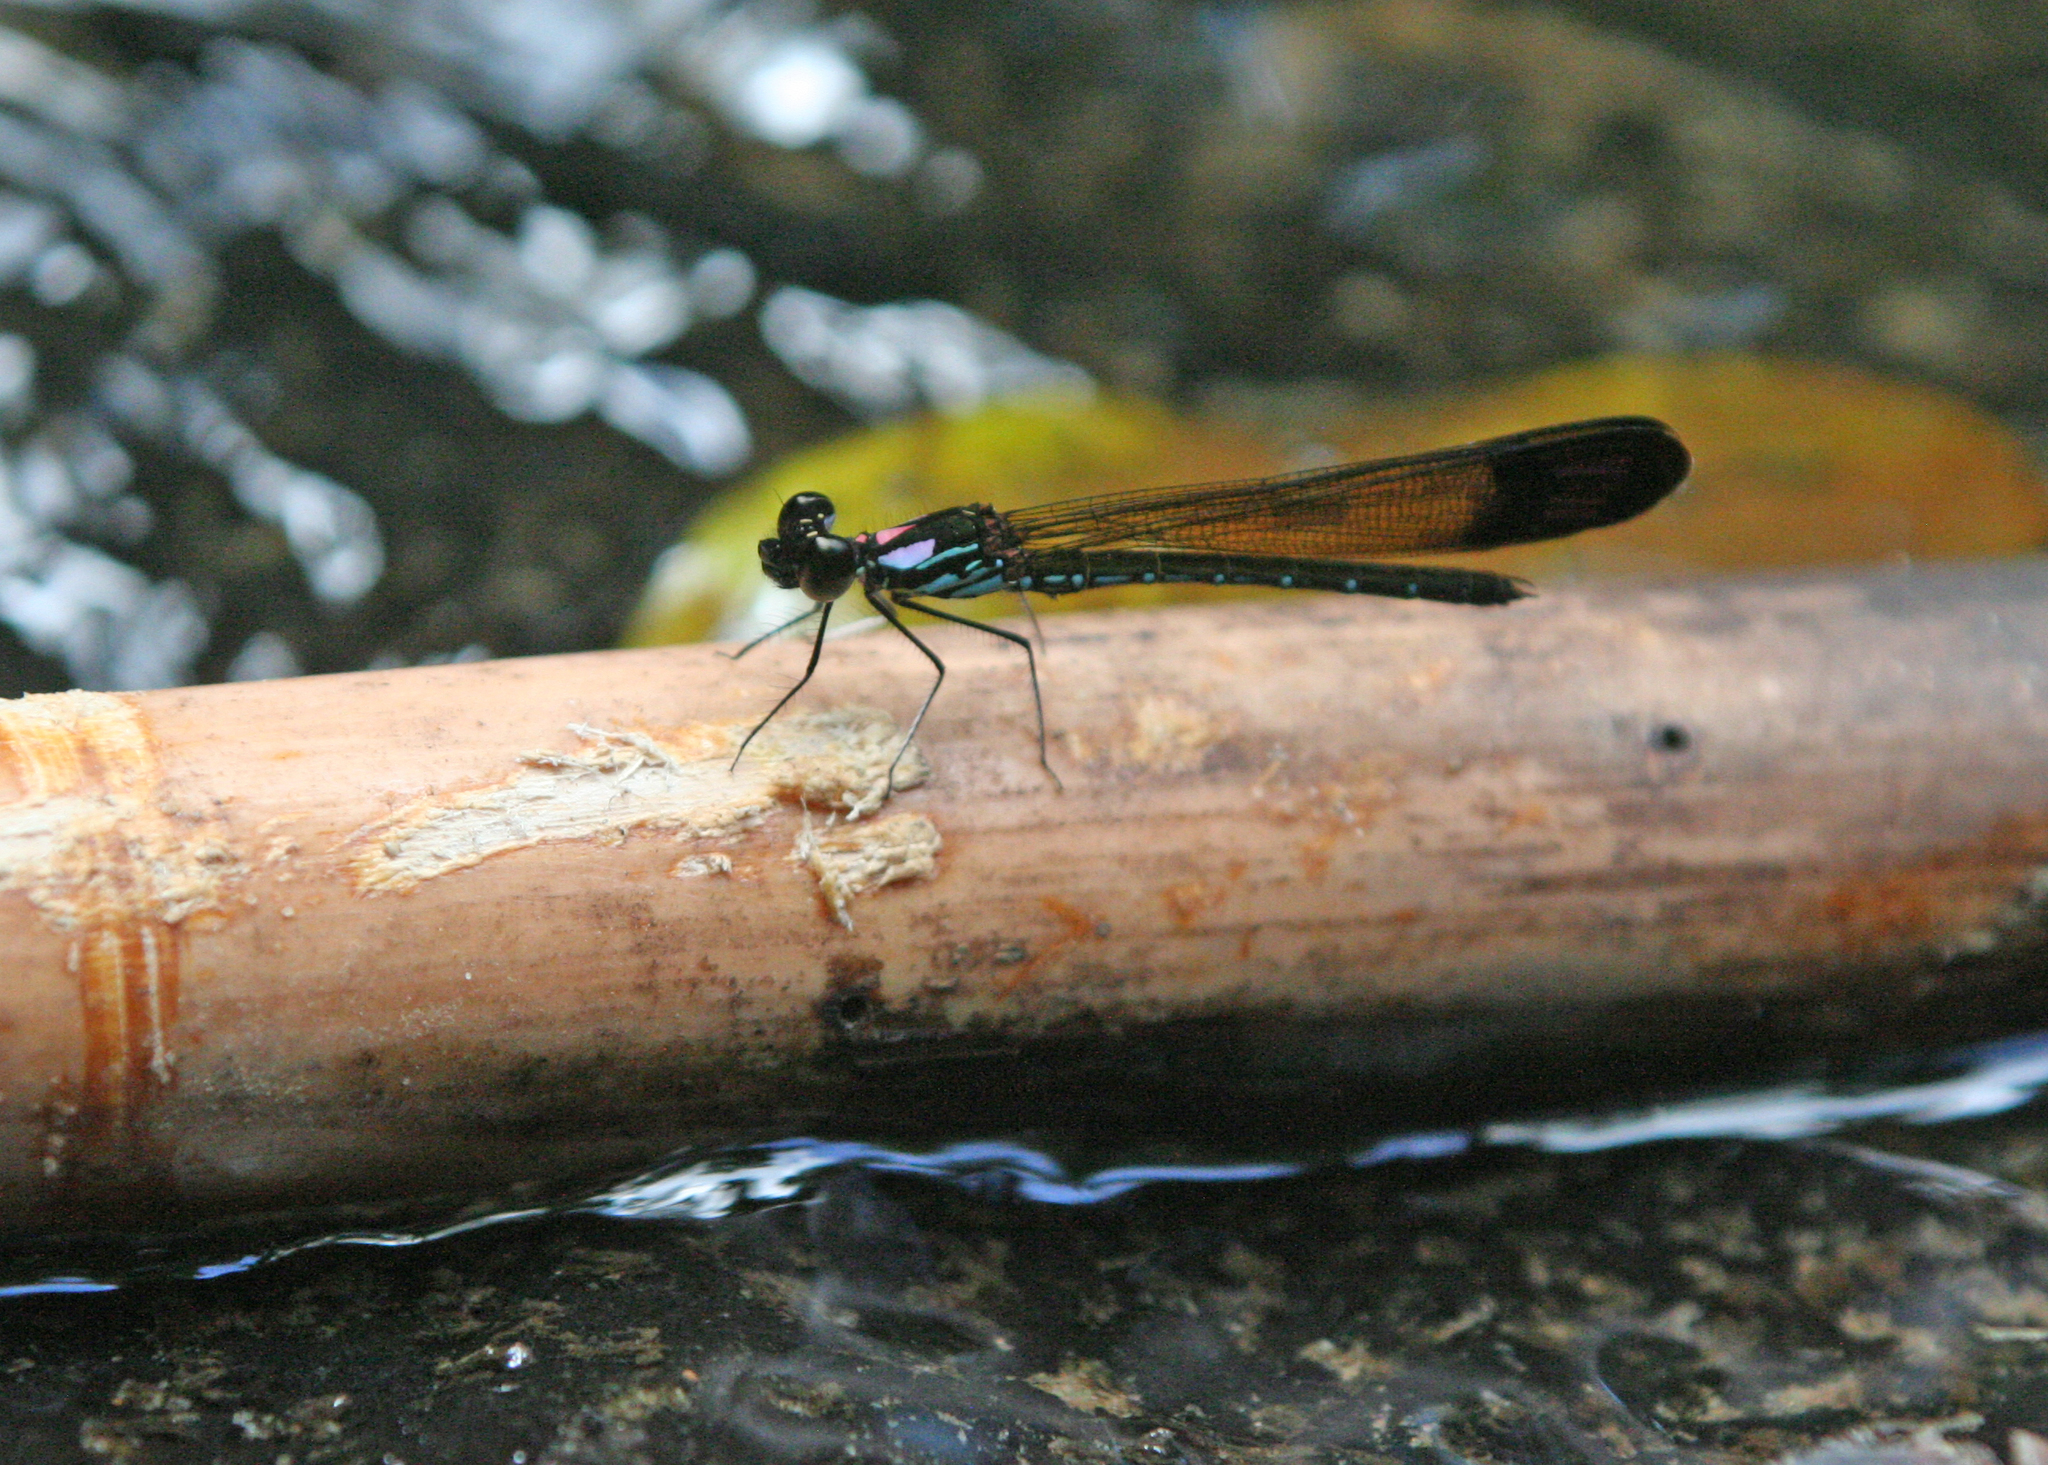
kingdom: Animalia
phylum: Arthropoda
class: Insecta
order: Odonata
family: Chlorocyphidae
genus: Heliocypha
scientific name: Heliocypha biforata
